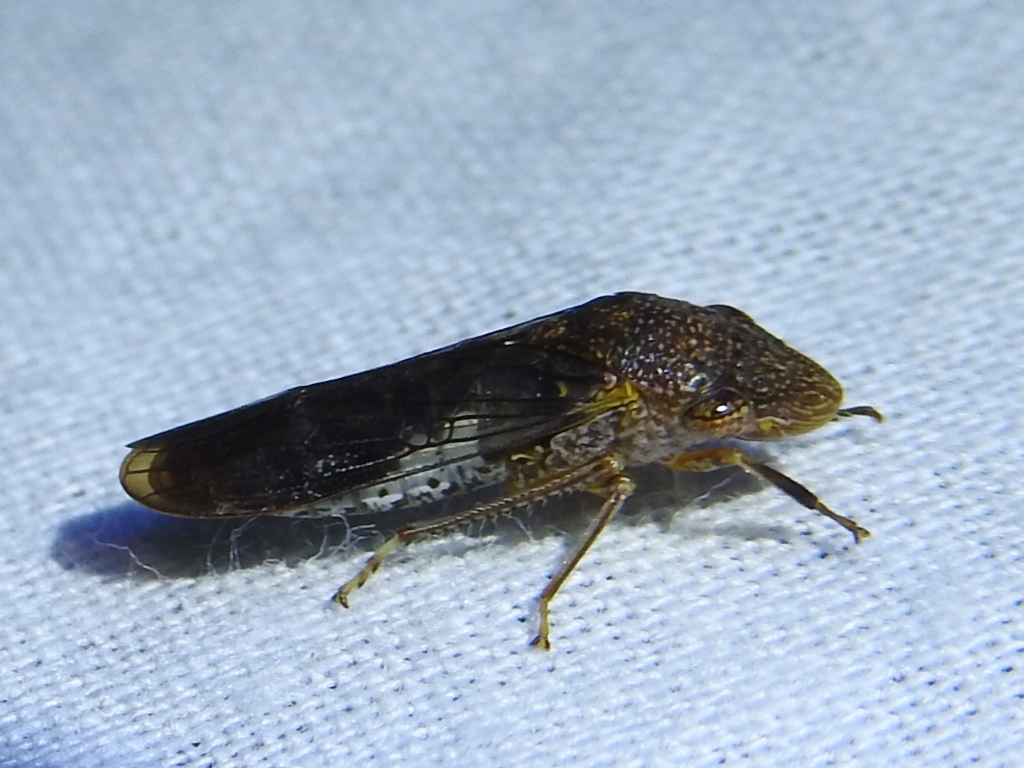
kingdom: Animalia
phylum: Arthropoda
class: Insecta
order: Hemiptera
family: Cicadellidae
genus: Homalodisca
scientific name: Homalodisca vitripennis
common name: Glassy-winged sharpshooter
